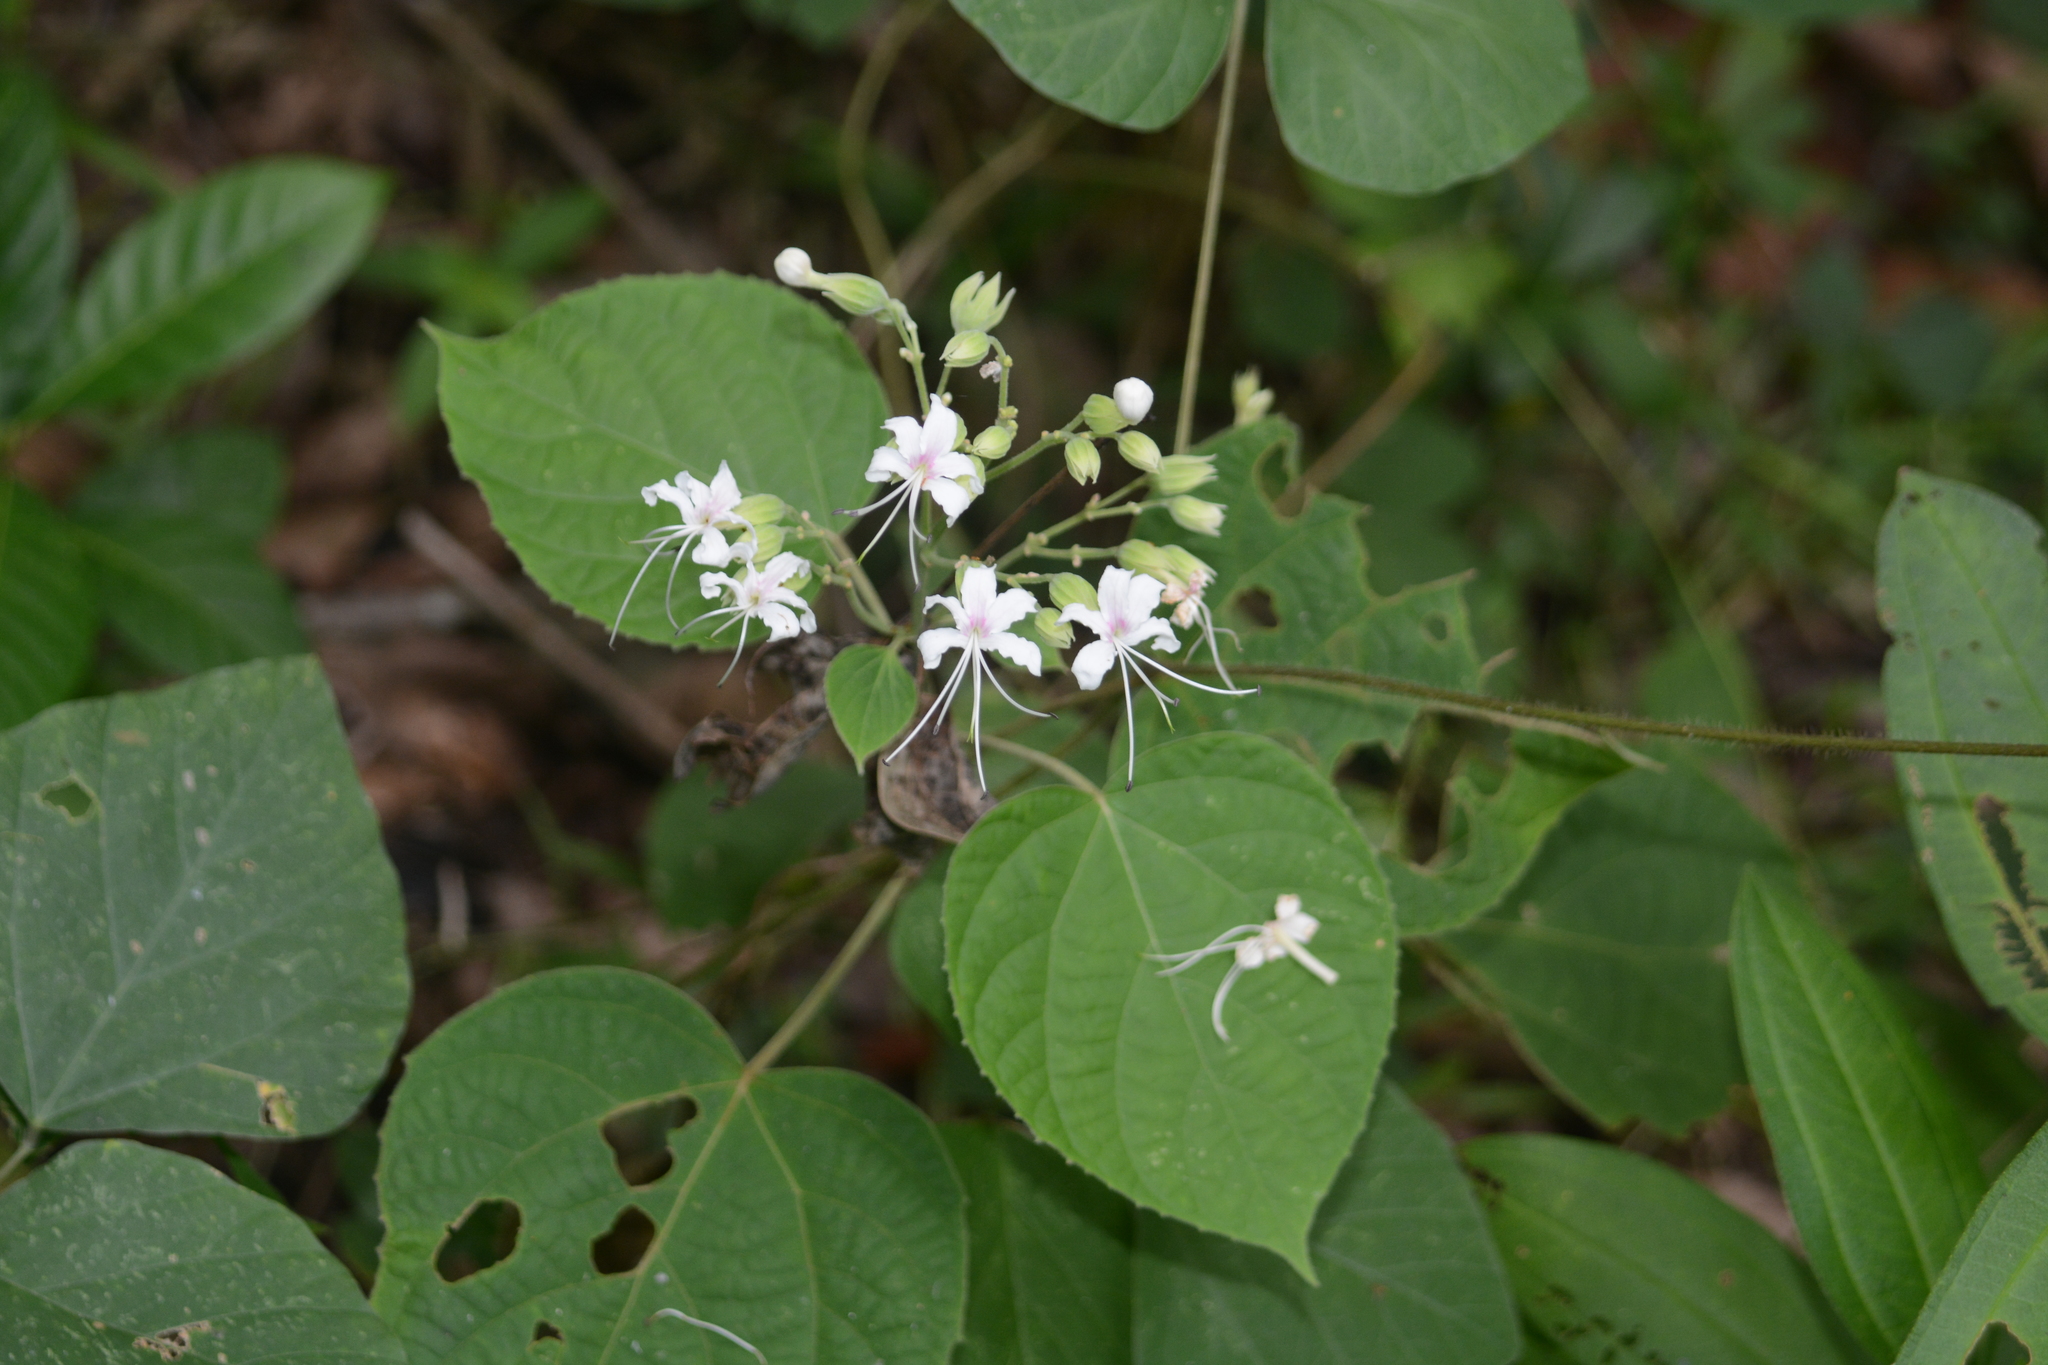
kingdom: Plantae
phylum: Tracheophyta
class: Magnoliopsida
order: Lamiales
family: Lamiaceae
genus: Clerodendrum
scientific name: Clerodendrum infortunatum
